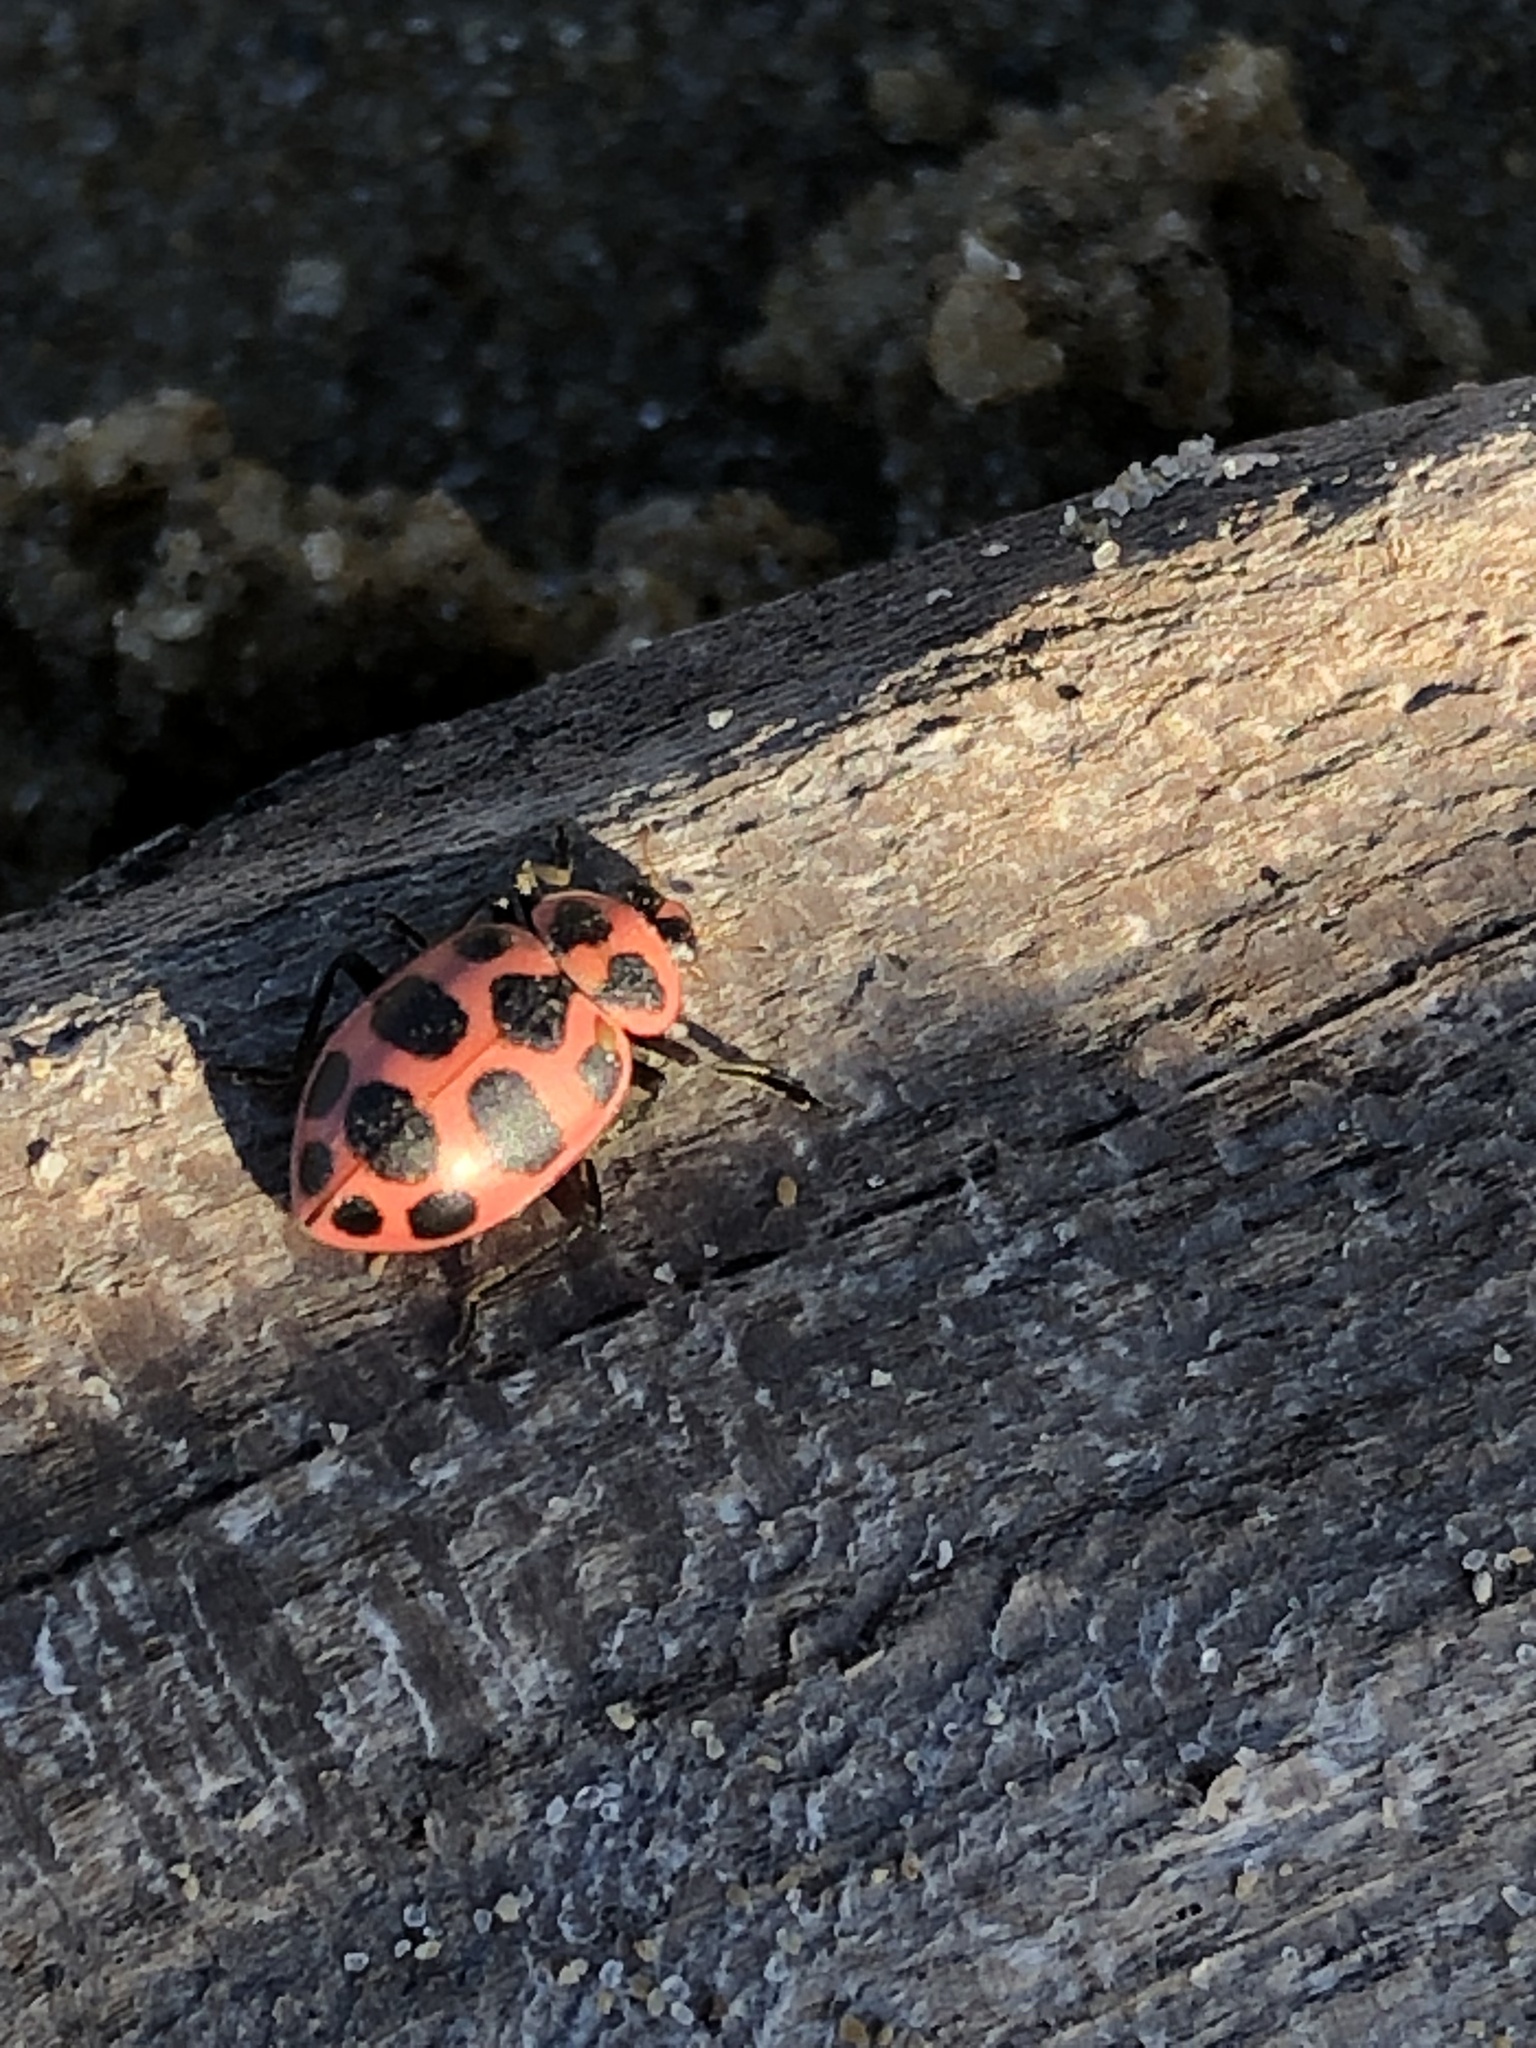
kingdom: Animalia
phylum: Arthropoda
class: Insecta
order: Coleoptera
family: Coccinellidae
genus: Coleomegilla
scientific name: Coleomegilla maculata
